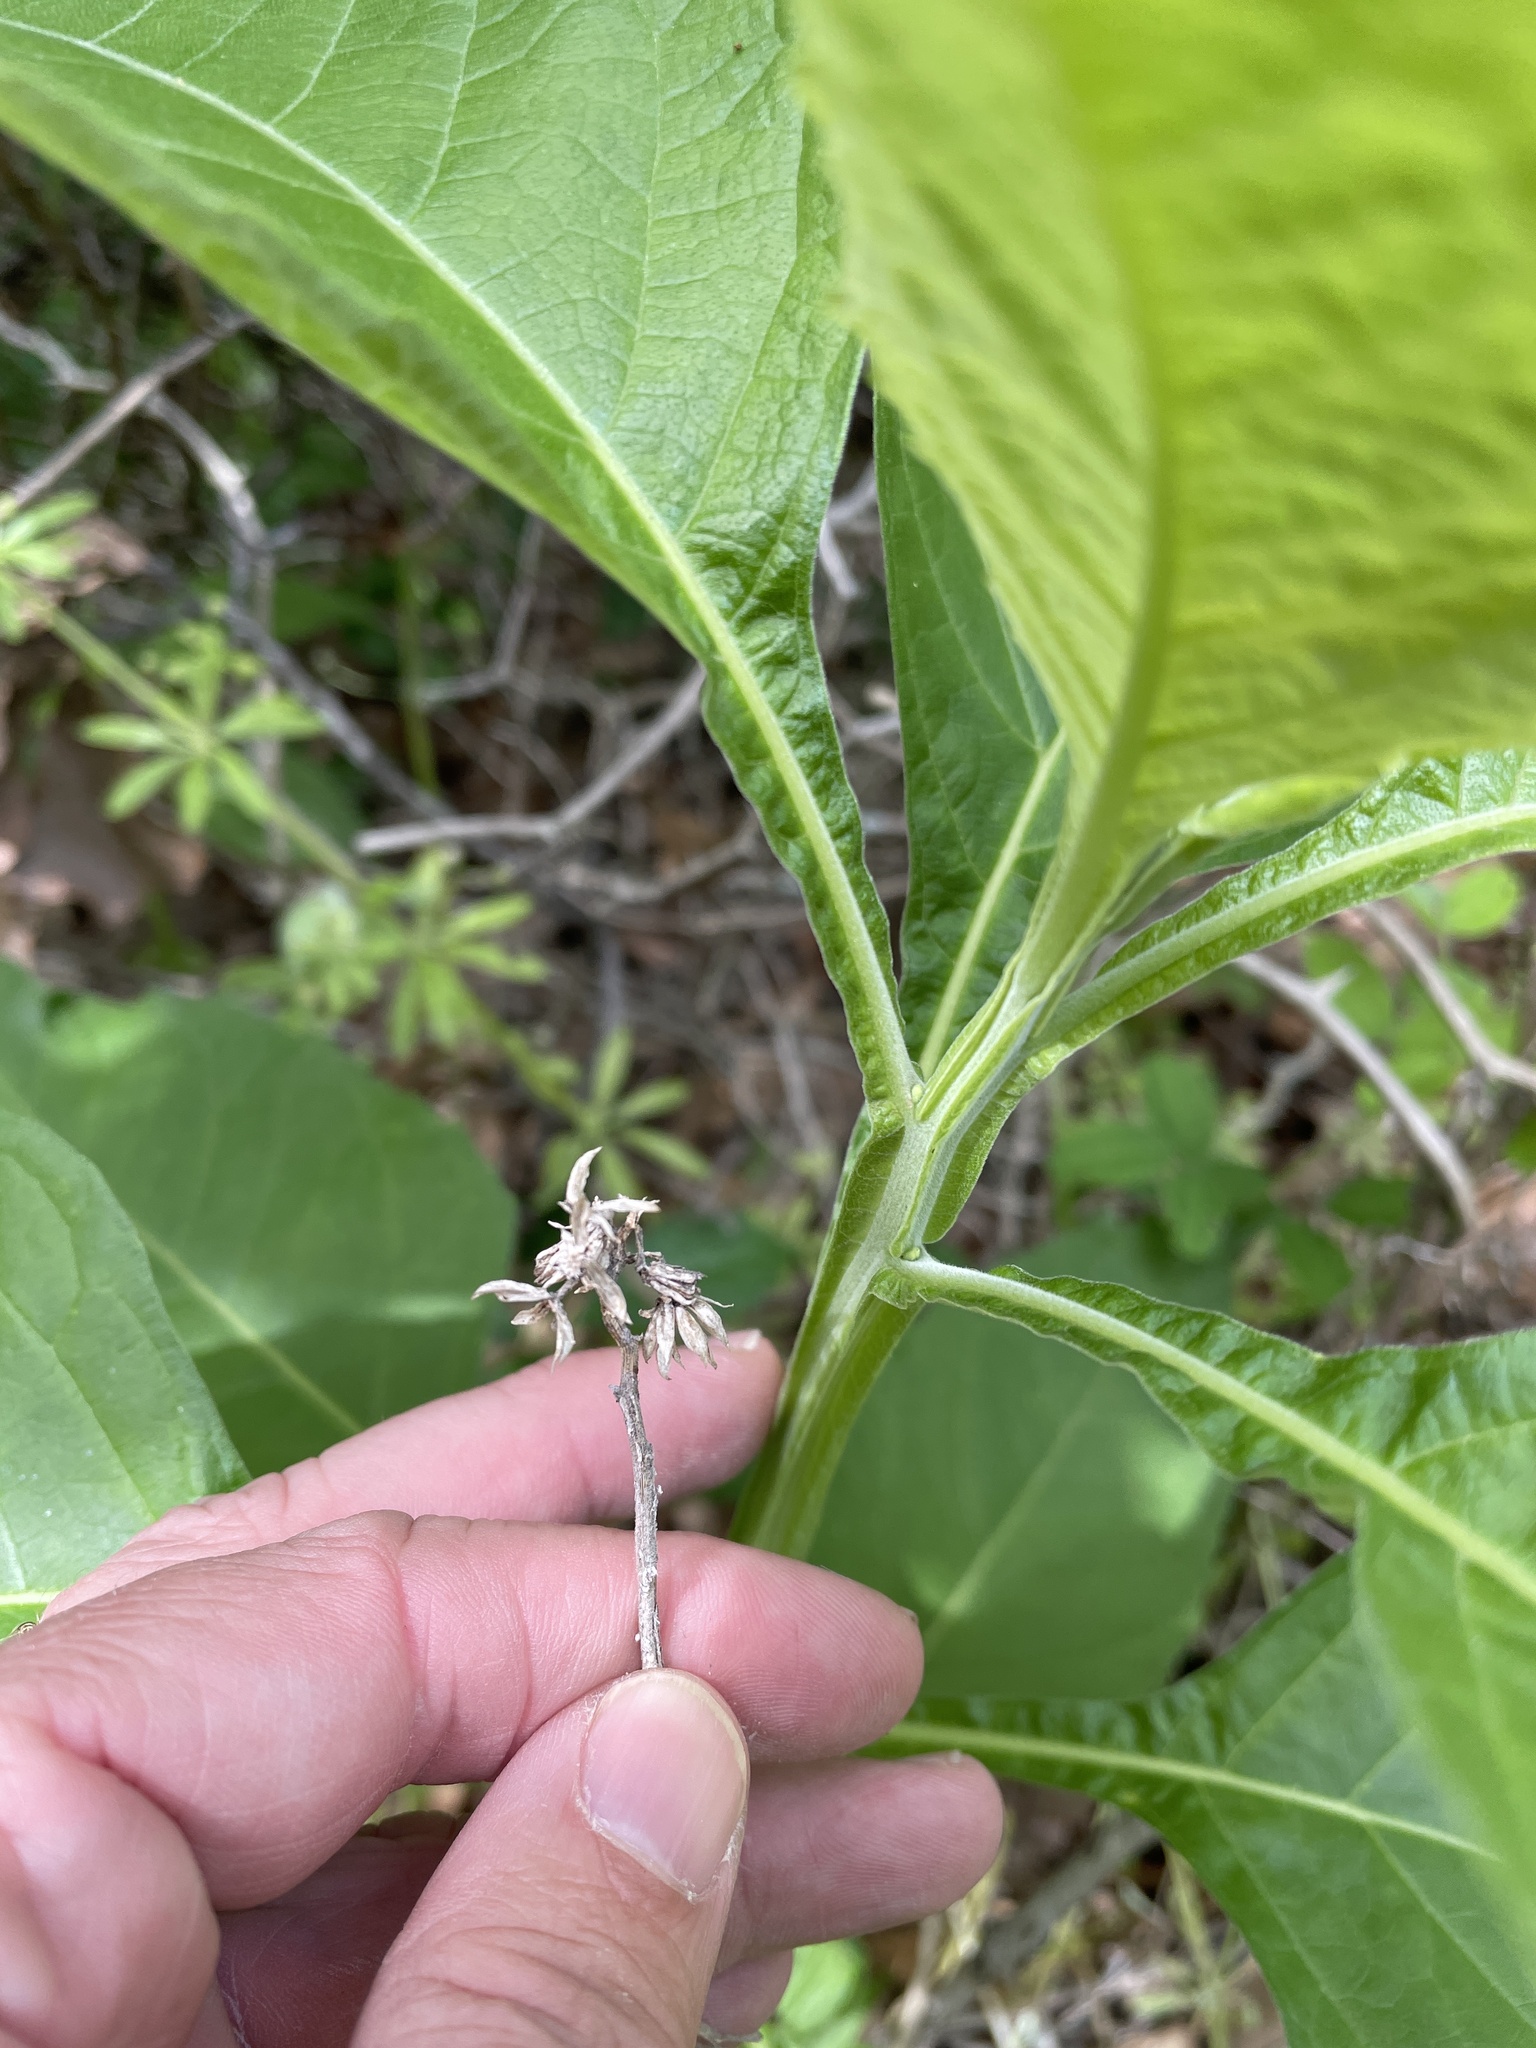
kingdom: Plantae
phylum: Tracheophyta
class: Magnoliopsida
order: Asterales
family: Asteraceae
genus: Verbesina
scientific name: Verbesina virginica
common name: Frostweed
